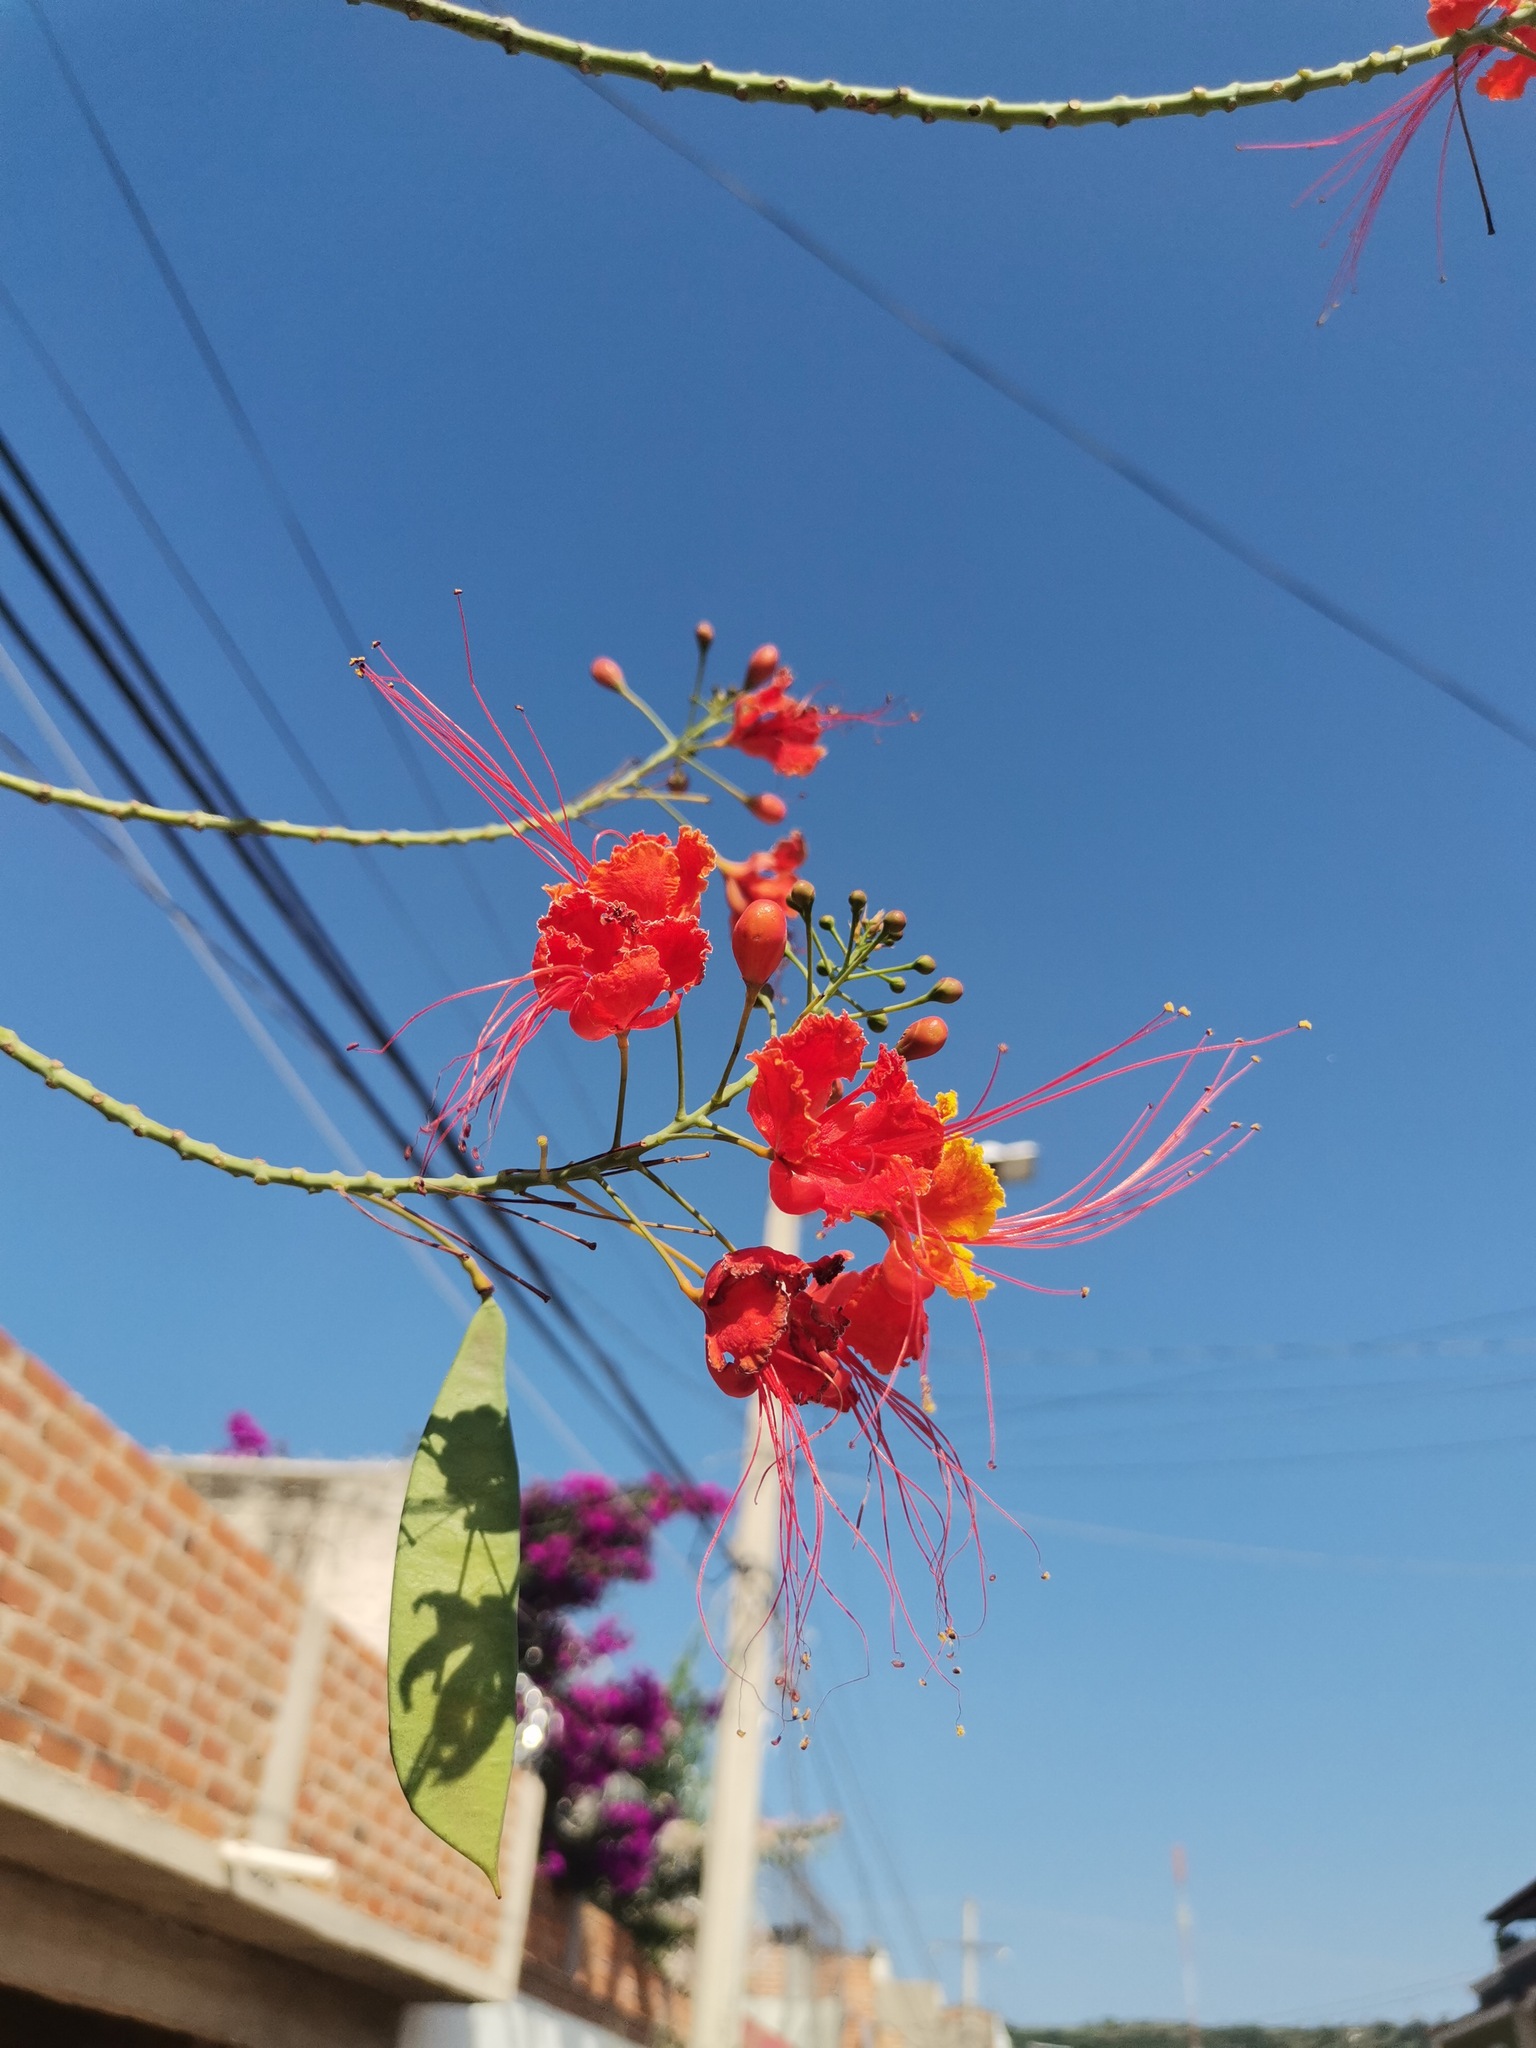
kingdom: Plantae
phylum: Tracheophyta
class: Magnoliopsida
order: Fabales
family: Fabaceae
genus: Caesalpinia
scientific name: Caesalpinia pulcherrima
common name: Pride-of-barbados
